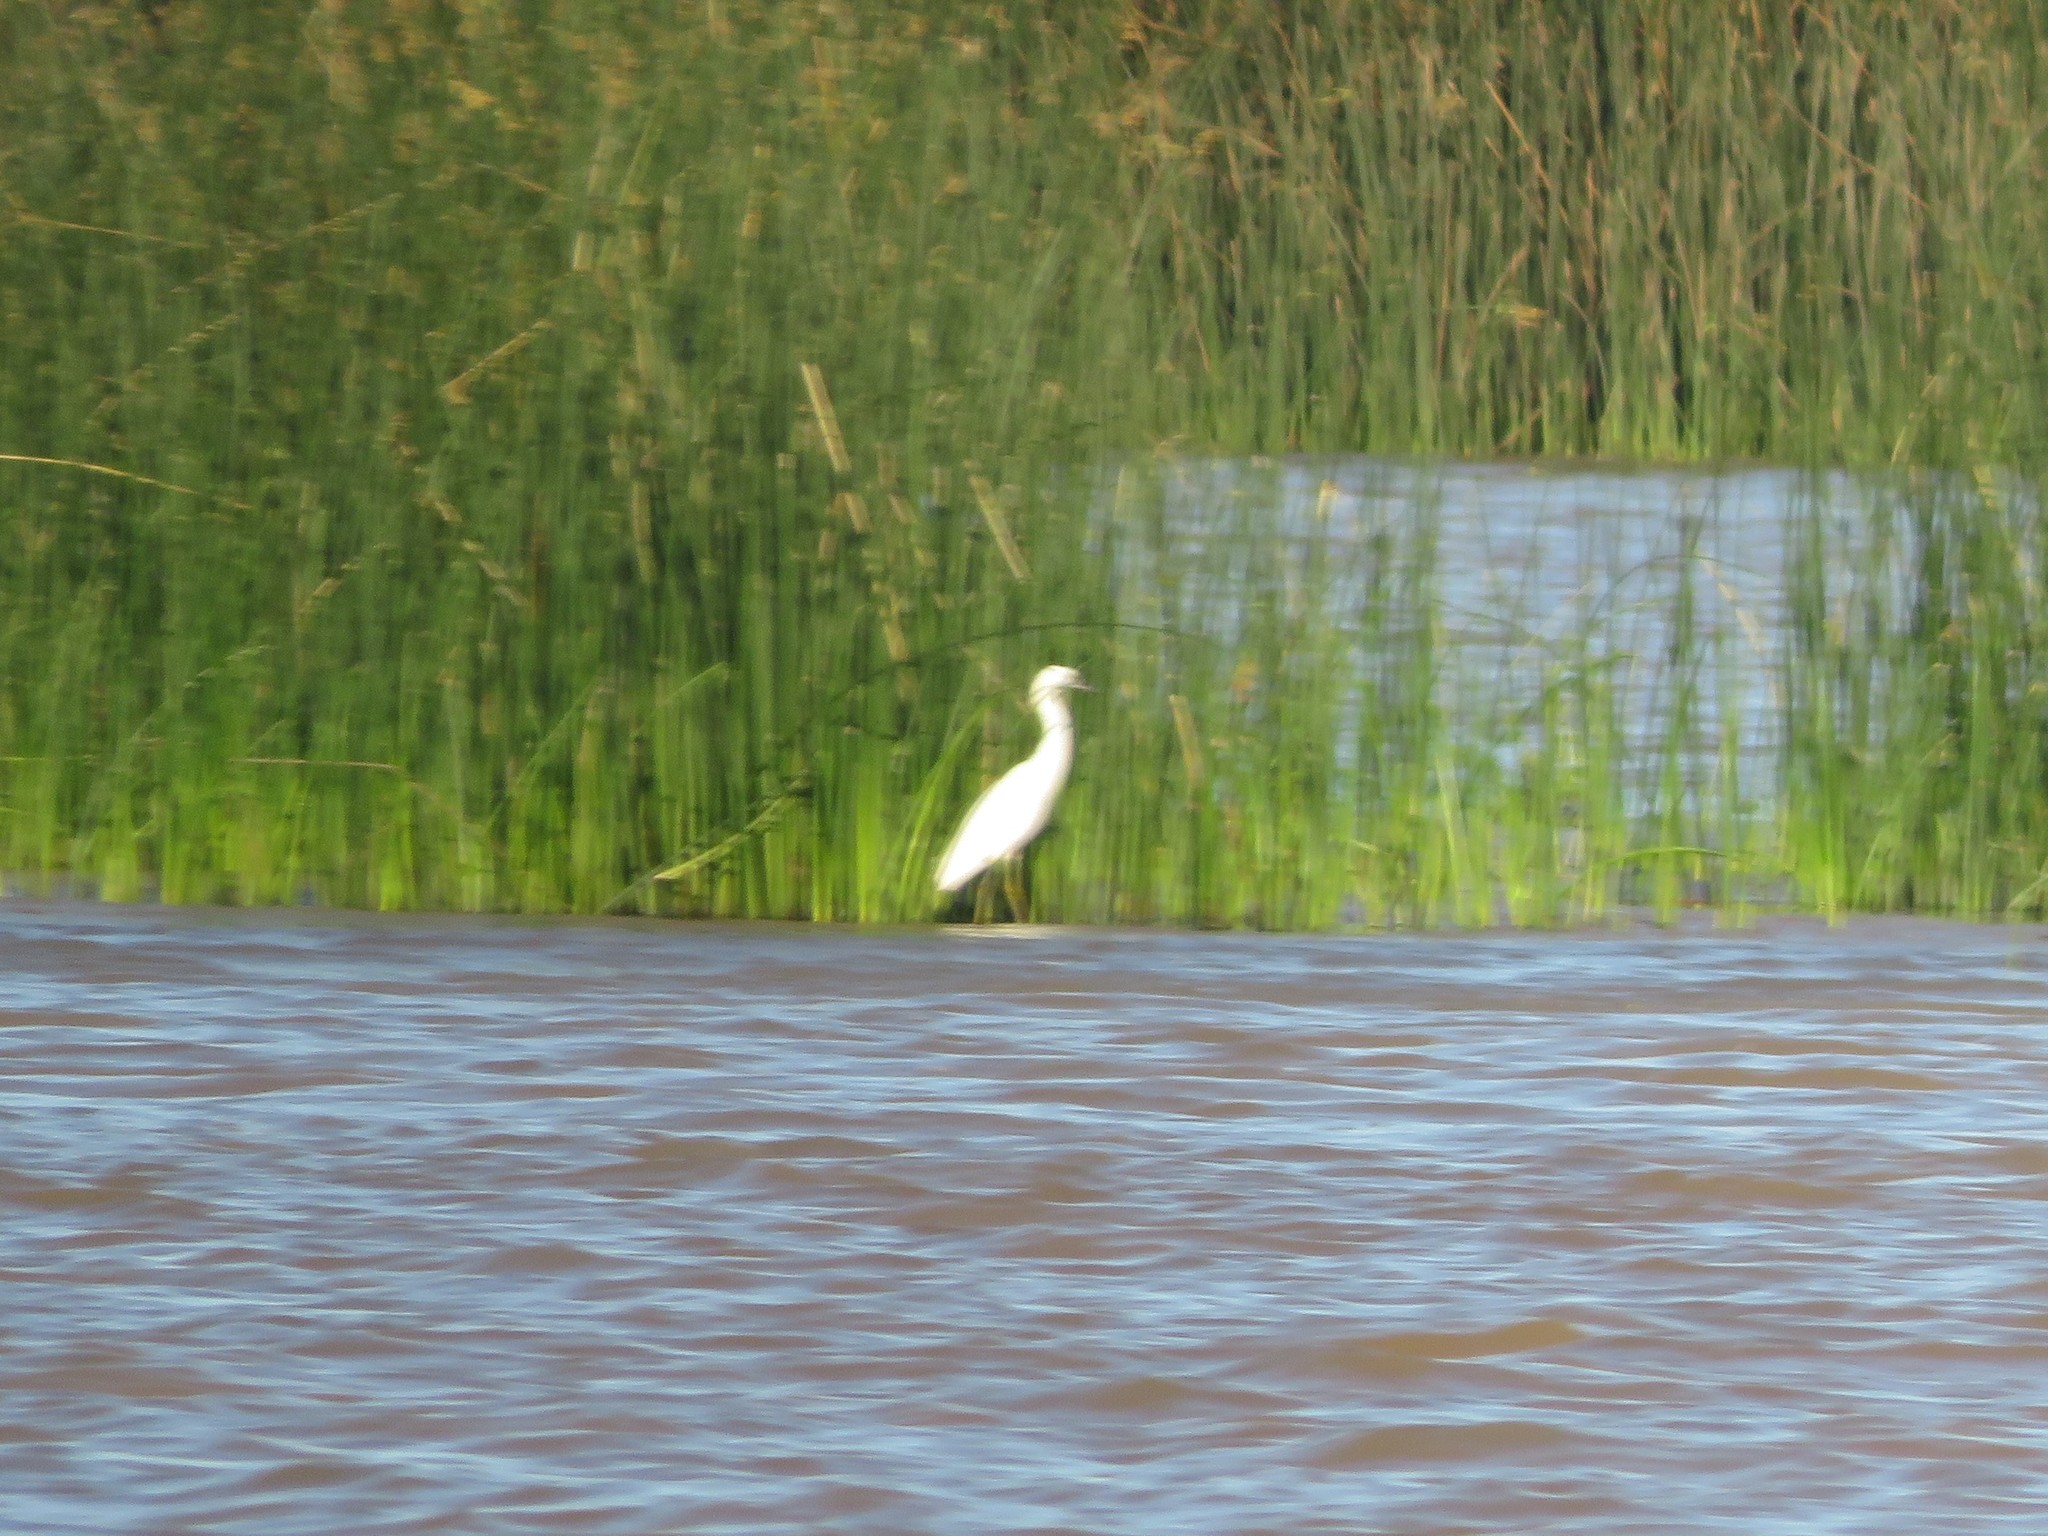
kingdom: Animalia
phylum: Chordata
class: Aves
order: Pelecaniformes
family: Ardeidae
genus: Ardea
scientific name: Ardea alba
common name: Great egret
